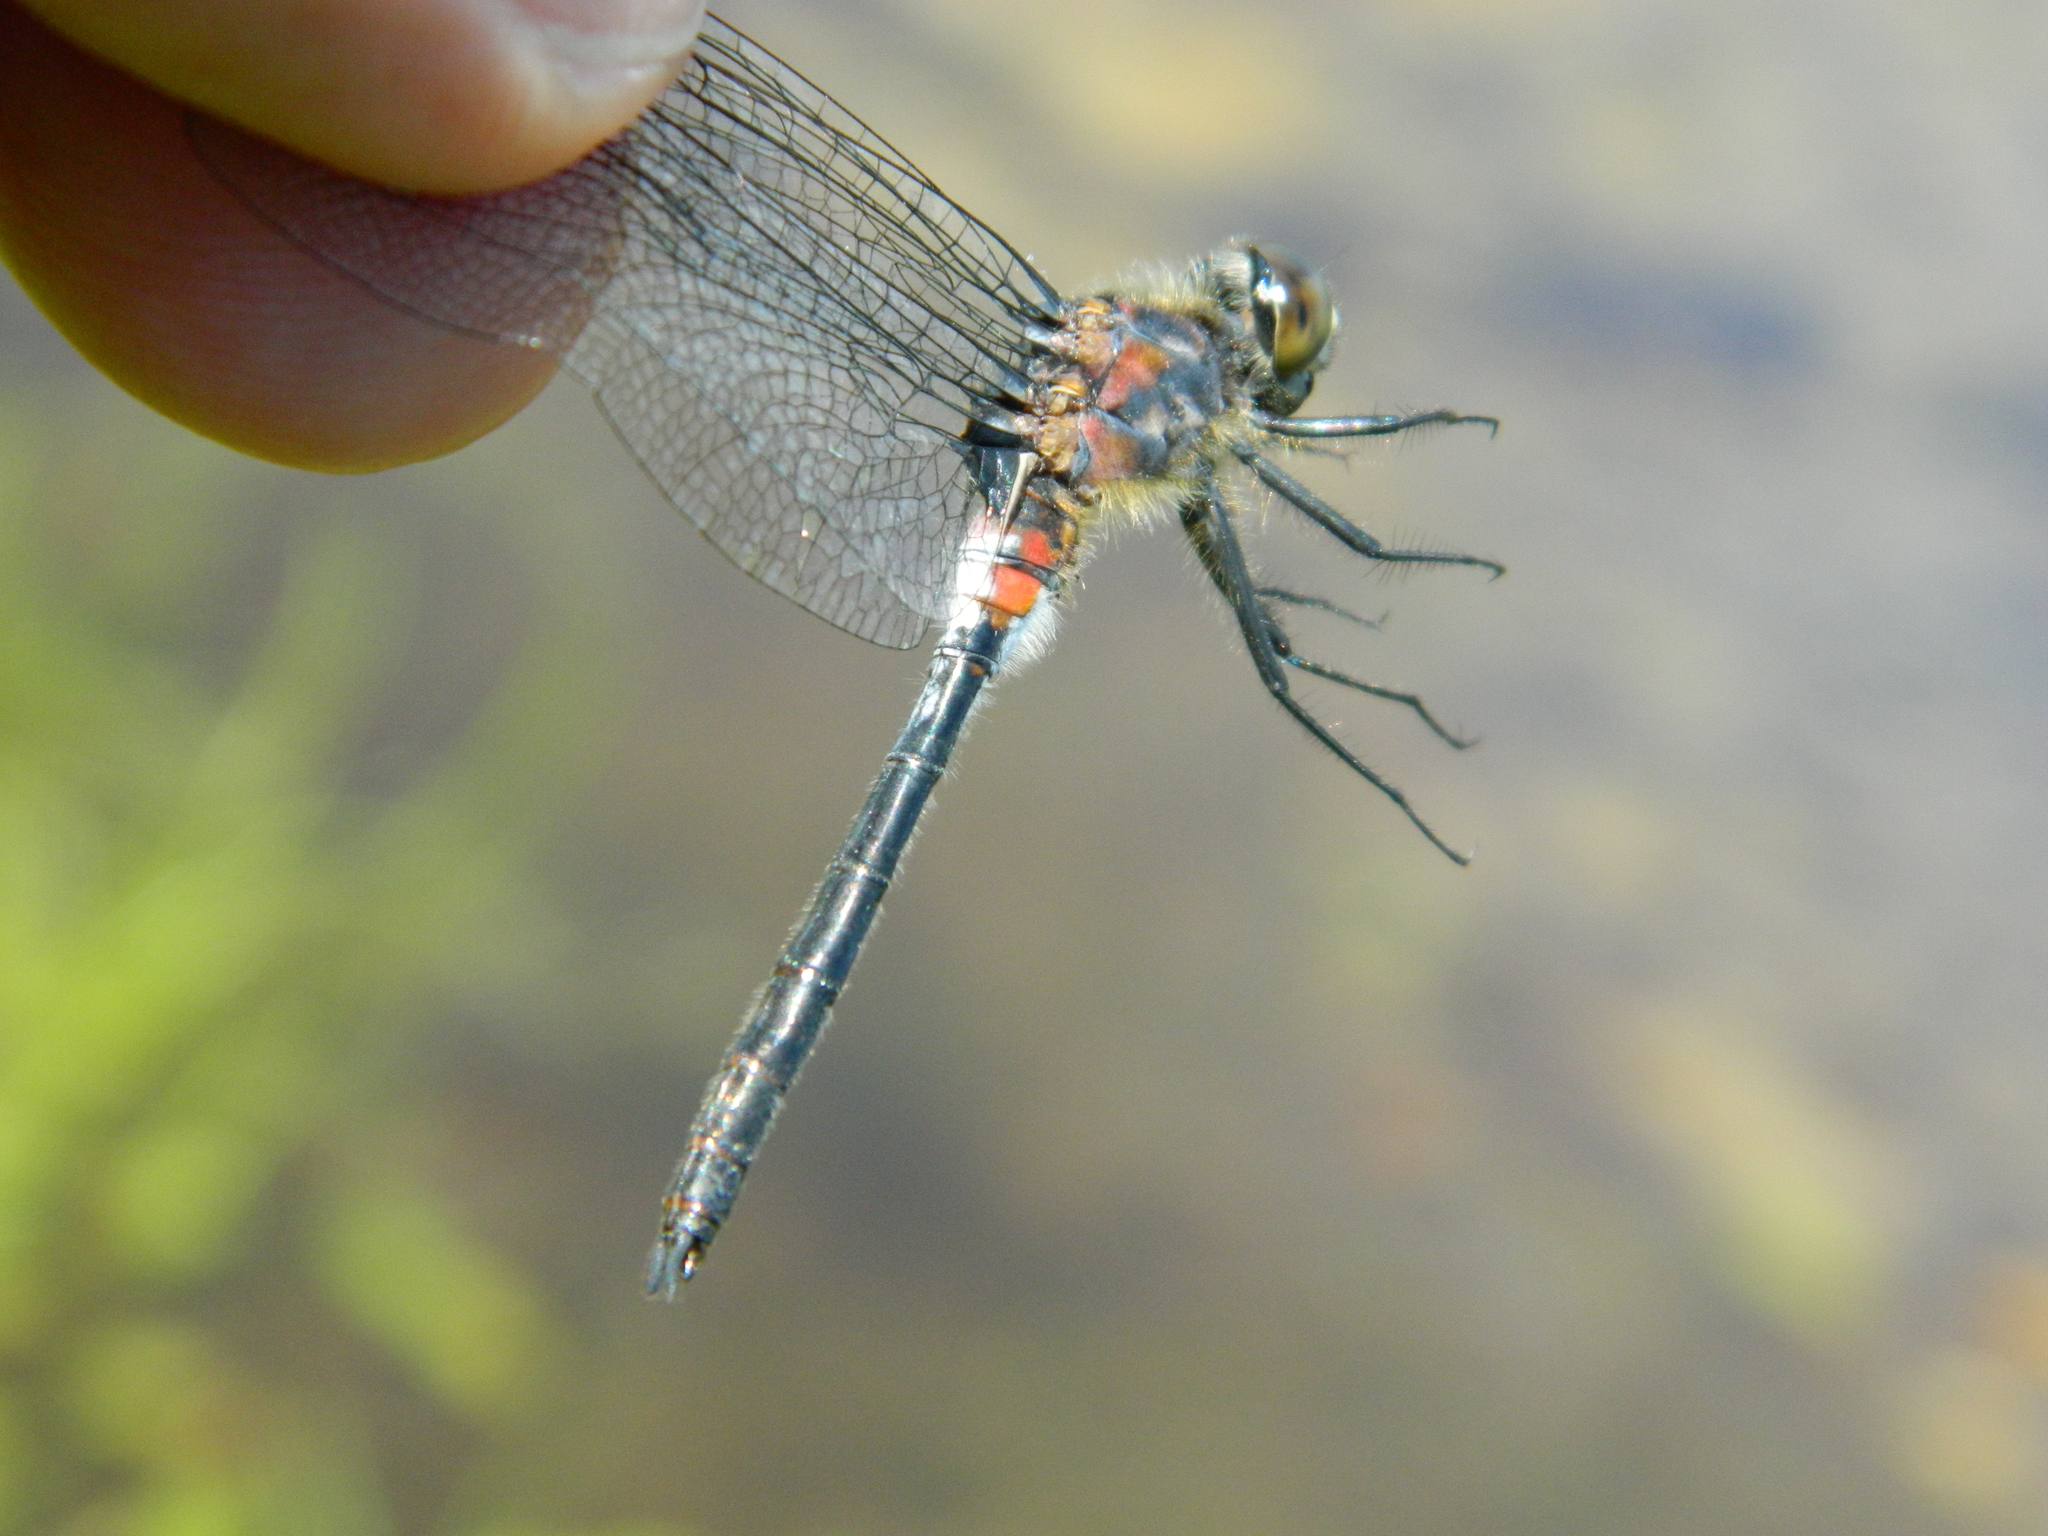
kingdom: Animalia
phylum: Arthropoda
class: Insecta
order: Odonata
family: Libellulidae
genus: Leucorrhinia
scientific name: Leucorrhinia proxima
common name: Belted whiteface
